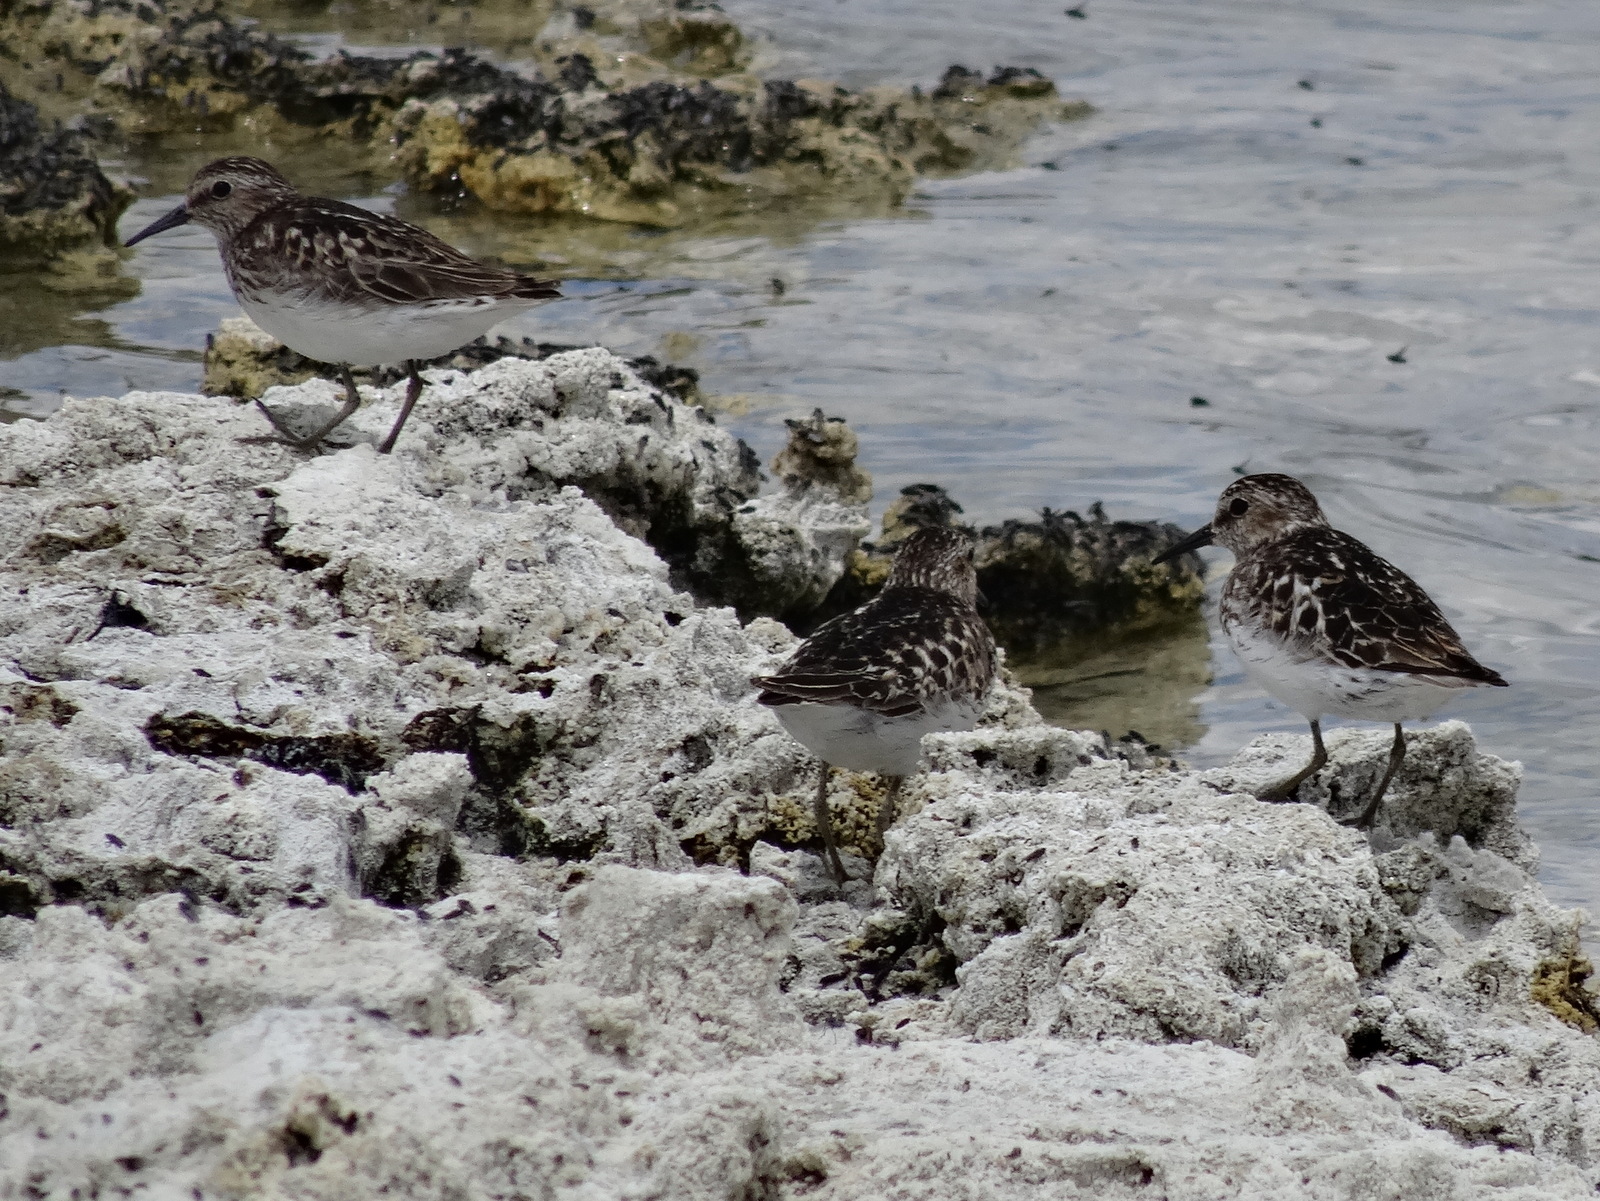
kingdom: Animalia
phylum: Chordata
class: Aves
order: Charadriiformes
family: Scolopacidae
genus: Calidris
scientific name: Calidris minutilla
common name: Least sandpiper
